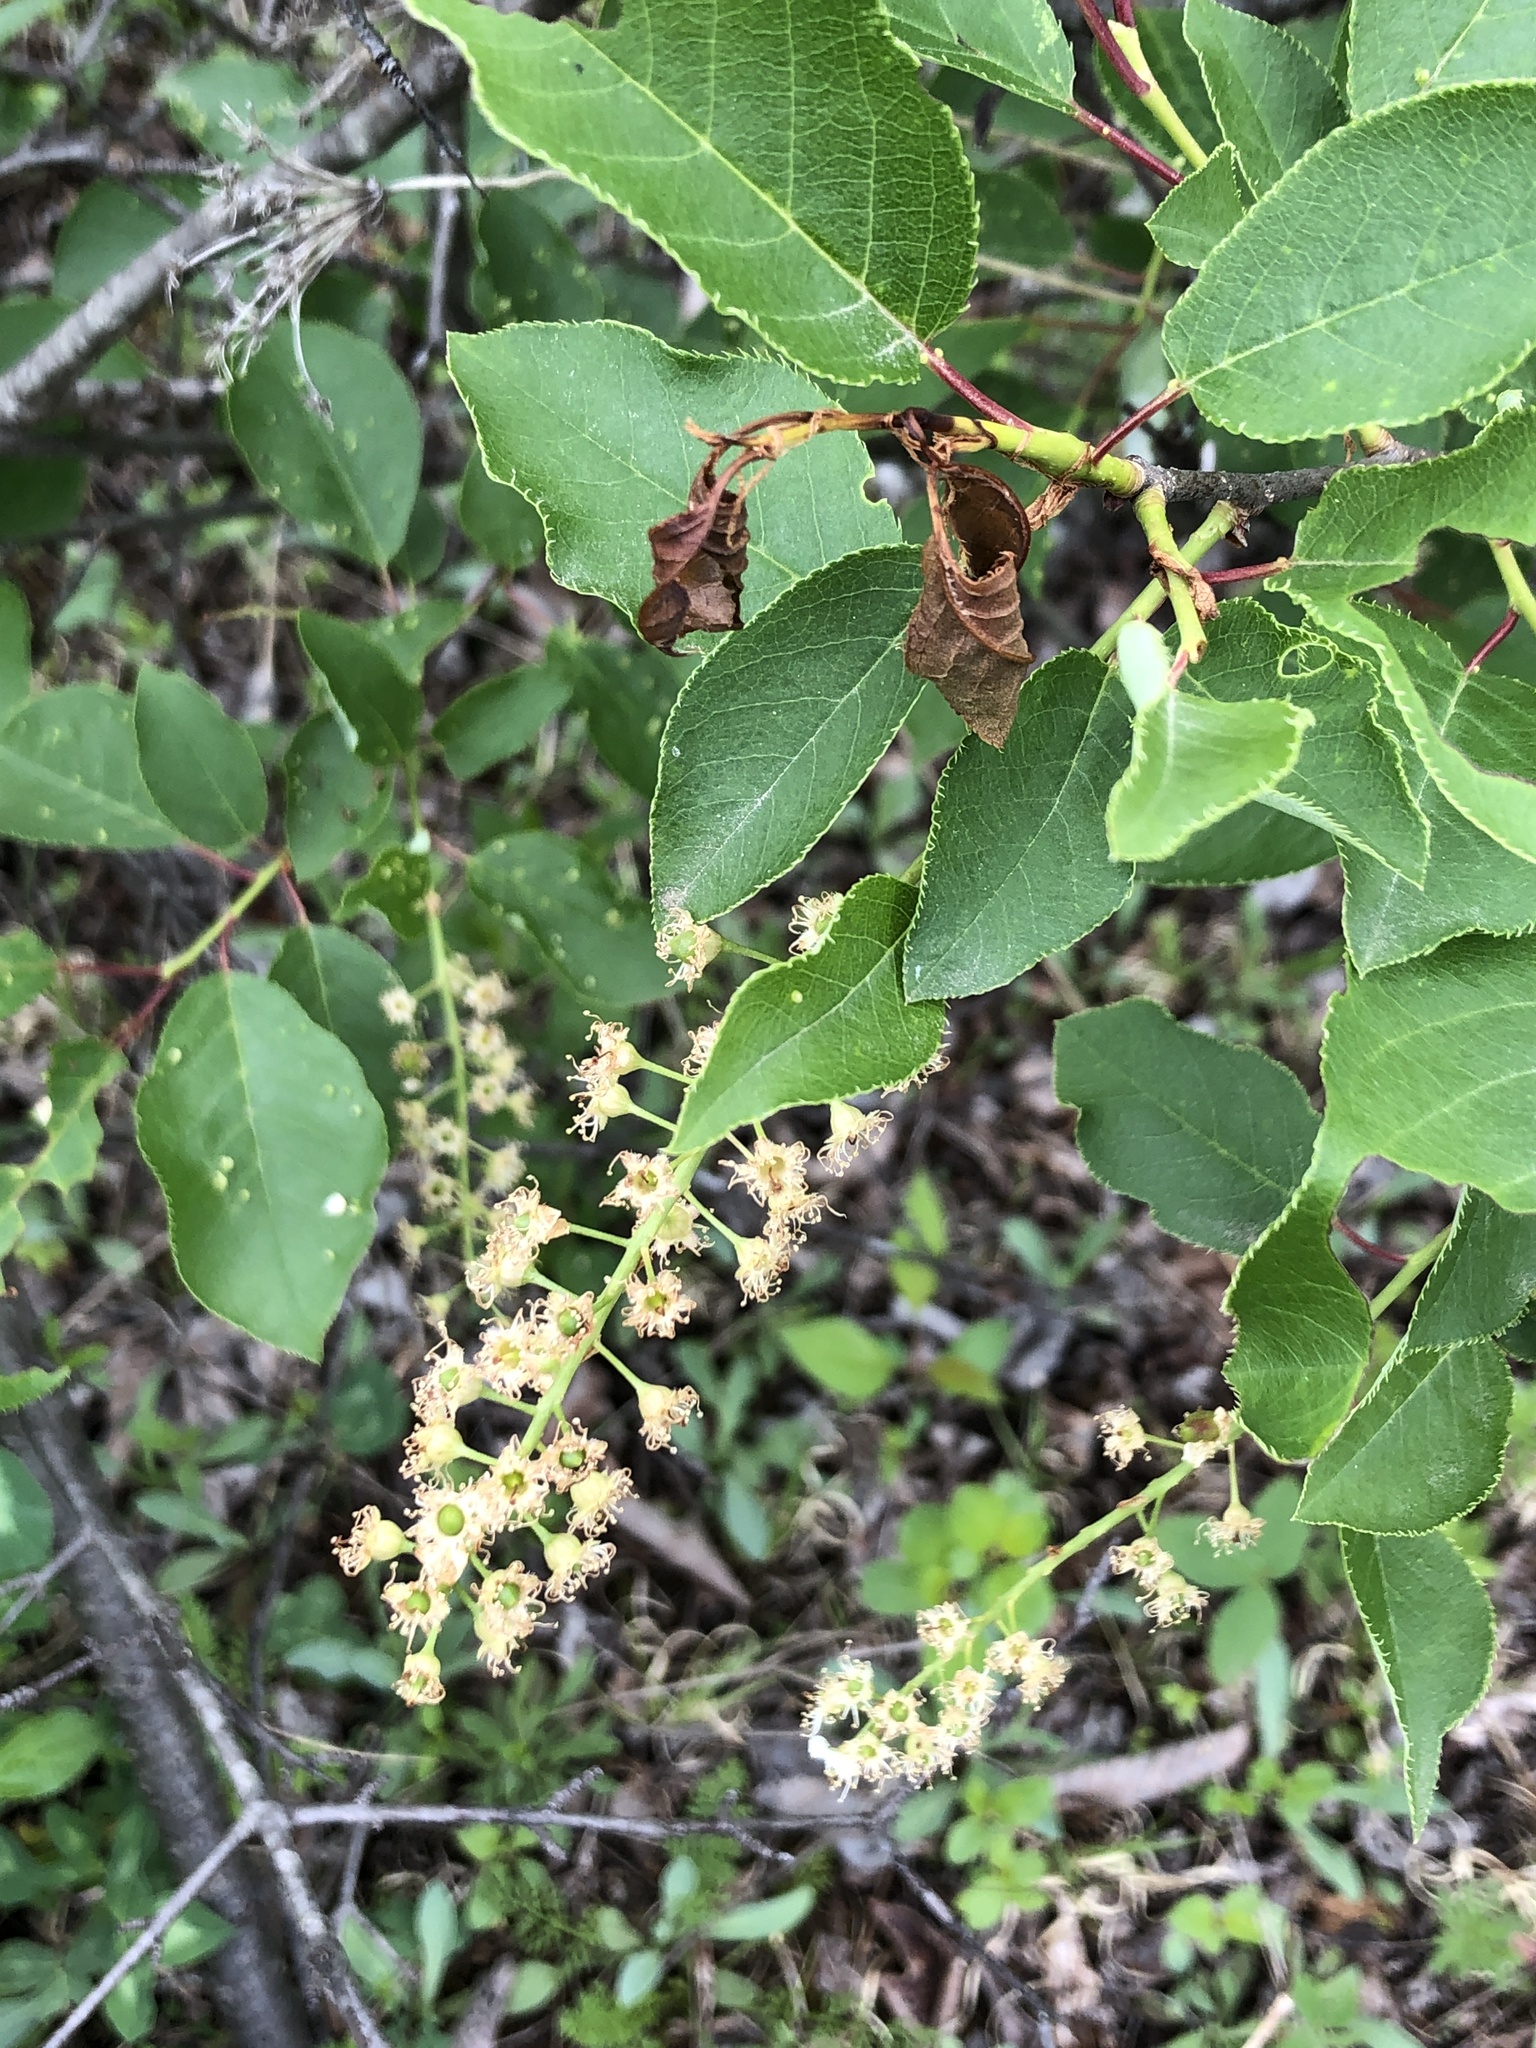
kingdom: Plantae
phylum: Tracheophyta
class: Magnoliopsida
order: Rosales
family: Rosaceae
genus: Prunus
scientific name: Prunus virginiana
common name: Chokecherry
